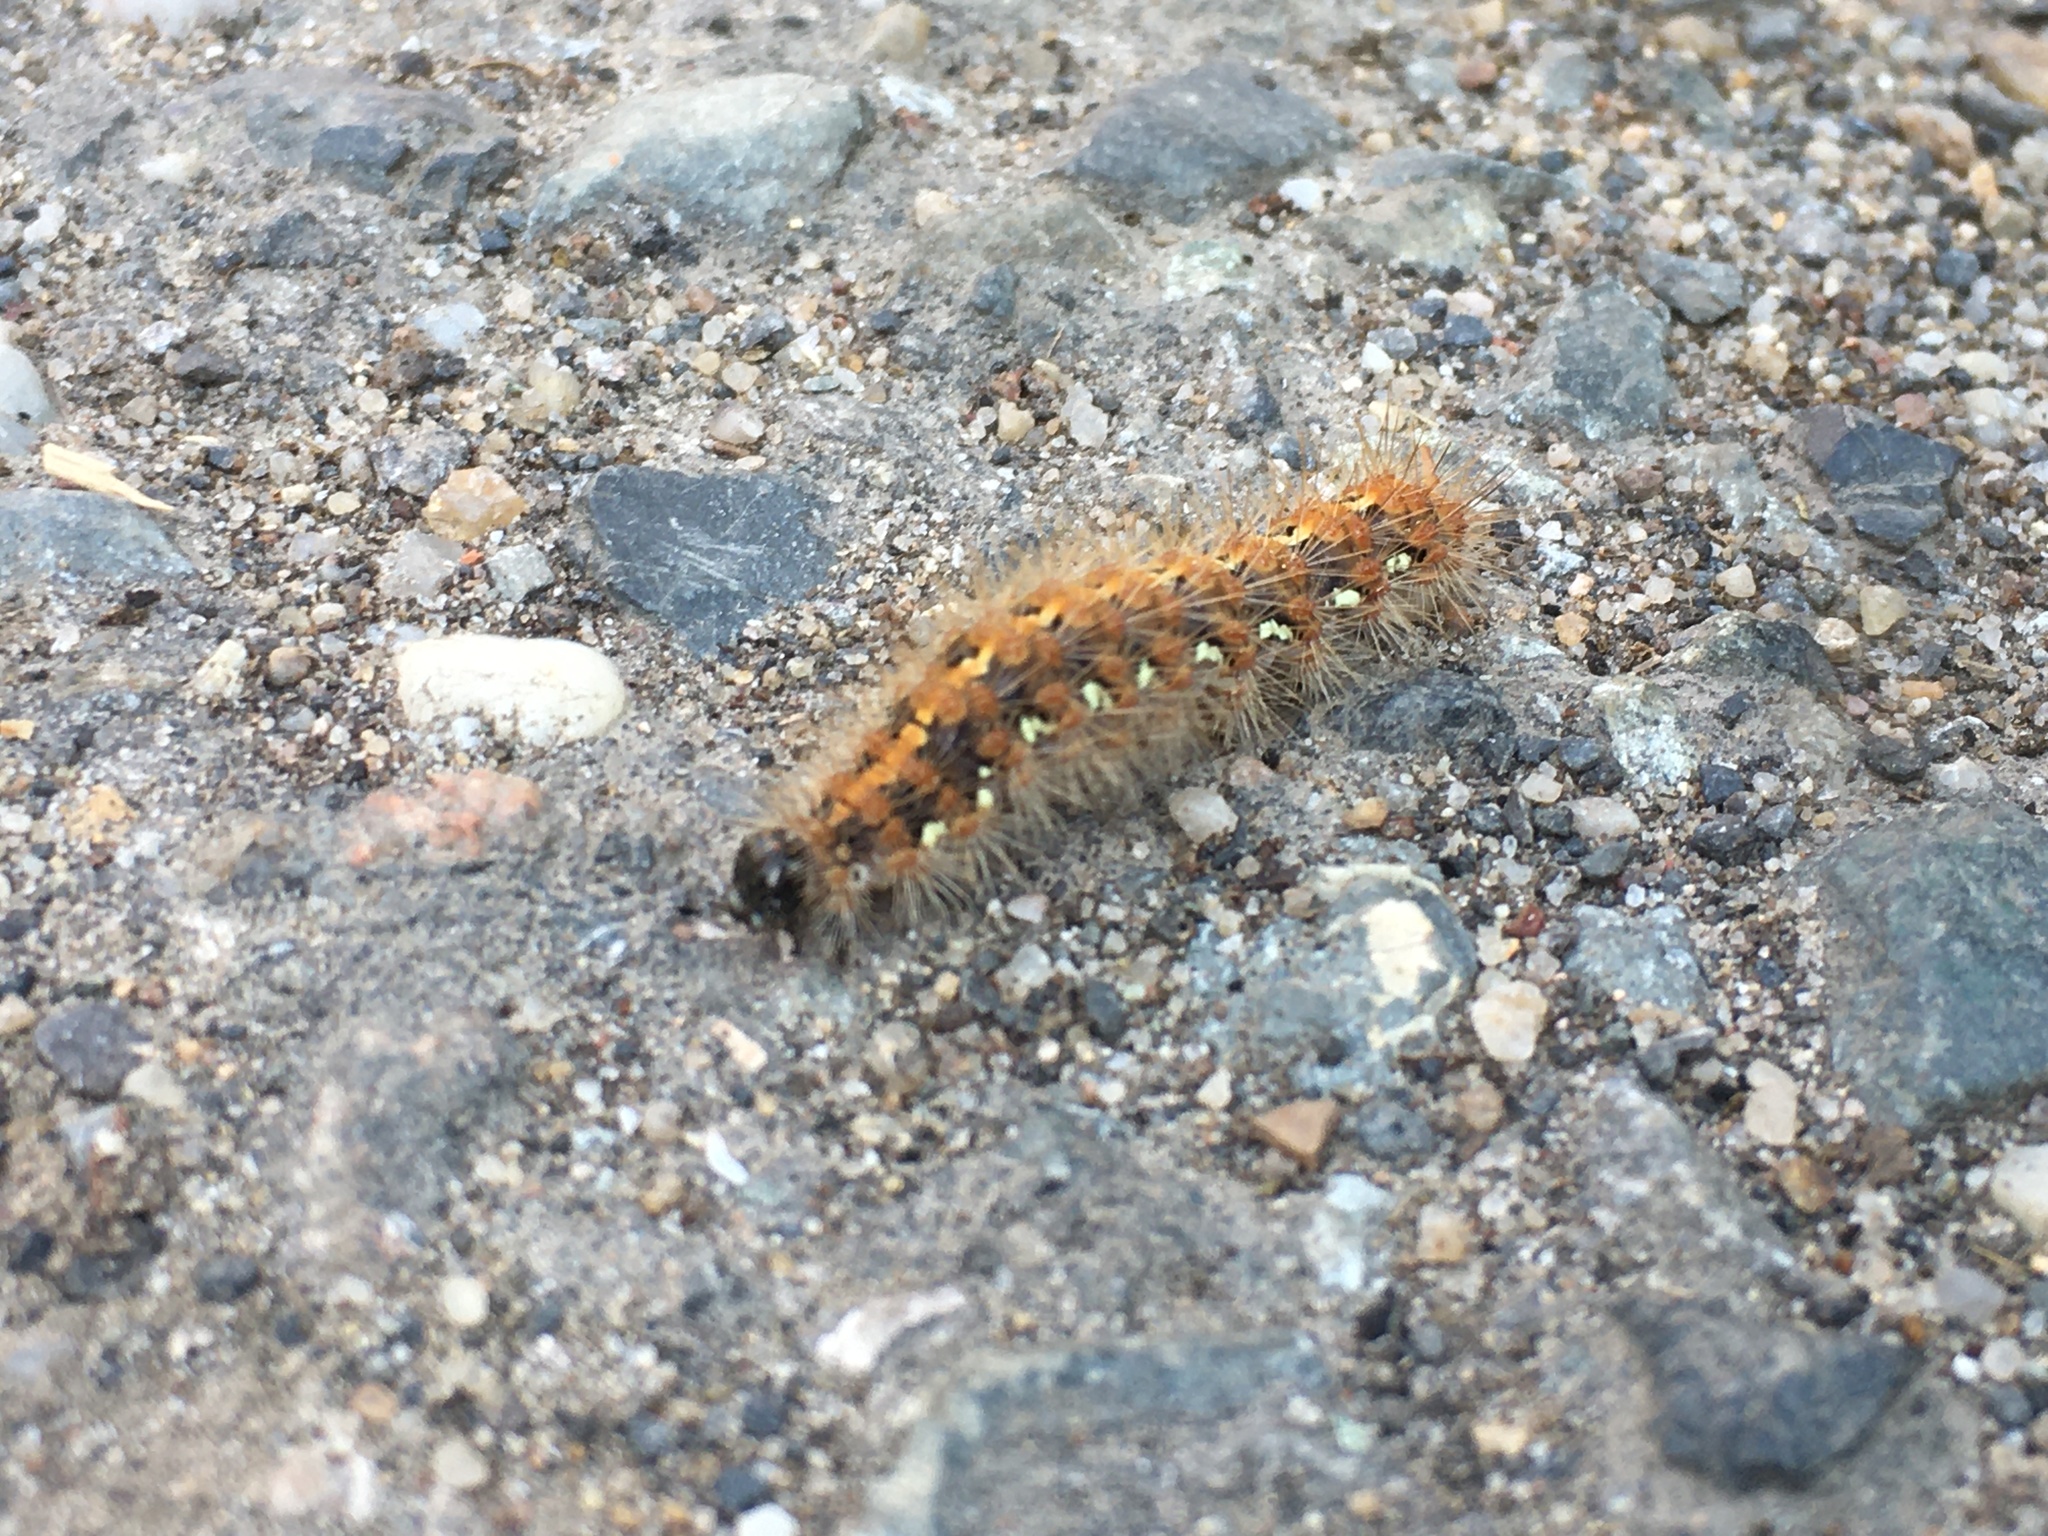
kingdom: Animalia
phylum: Arthropoda
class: Insecta
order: Lepidoptera
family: Erebidae
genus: Euplagia
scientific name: Euplagia quadripunctaria
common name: Jersey tiger
